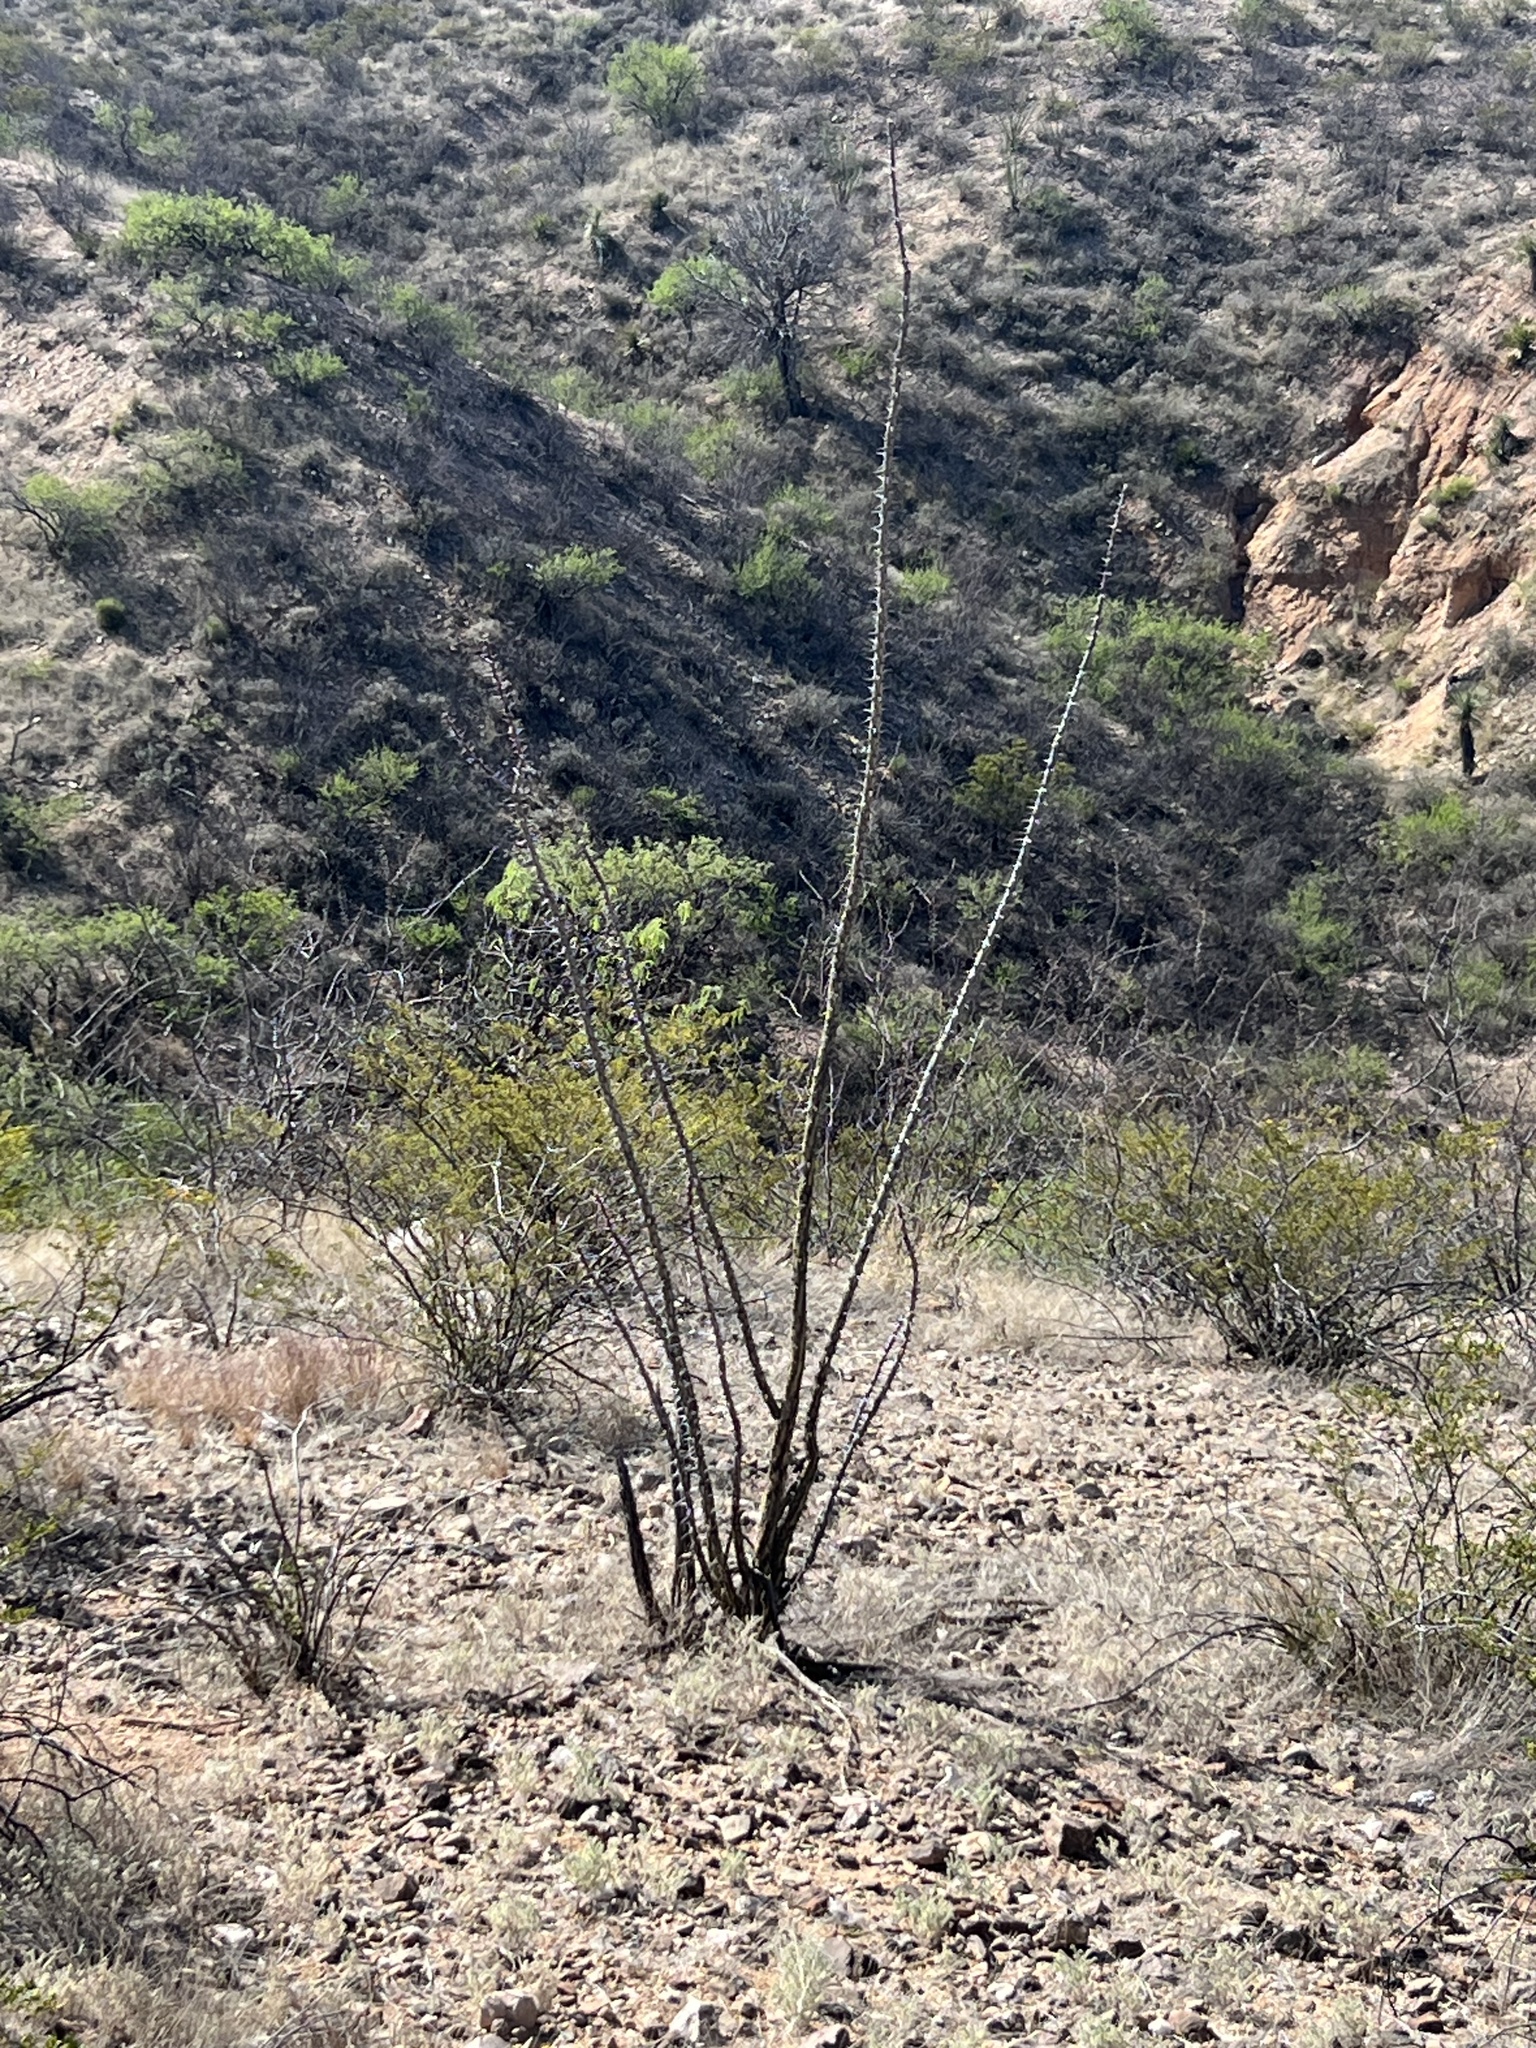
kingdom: Plantae
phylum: Tracheophyta
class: Magnoliopsida
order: Ericales
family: Fouquieriaceae
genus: Fouquieria
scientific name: Fouquieria splendens
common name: Vine-cactus
